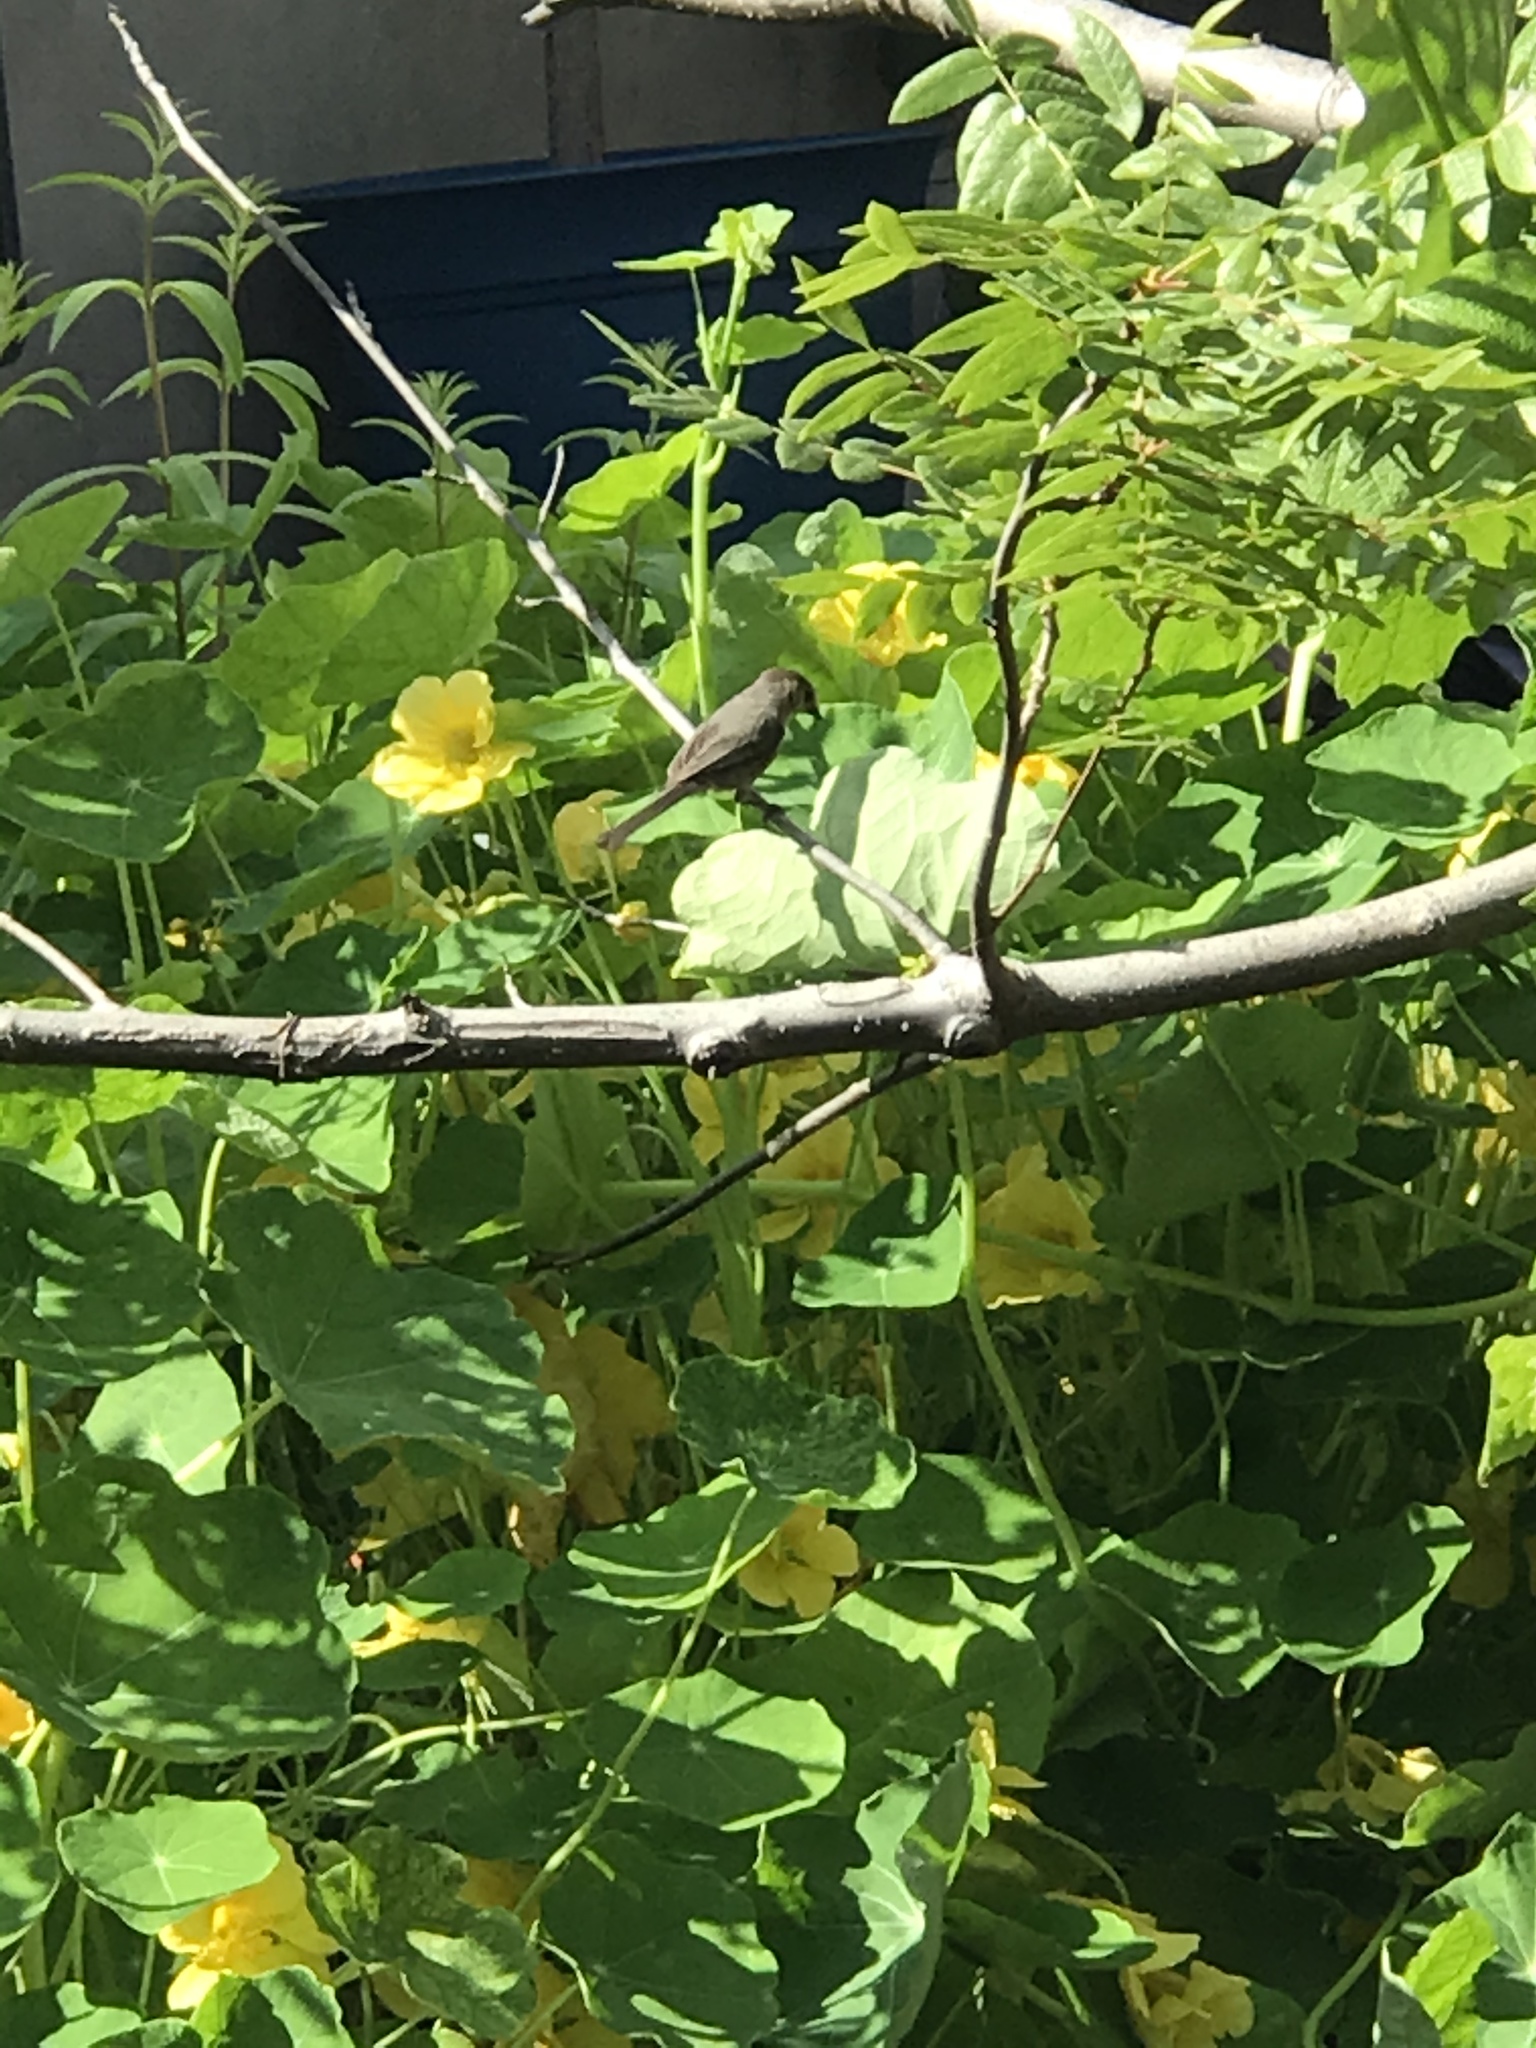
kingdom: Animalia
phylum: Chordata
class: Aves
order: Passeriformes
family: Aegithalidae
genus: Psaltriparus
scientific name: Psaltriparus minimus
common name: American bushtit
